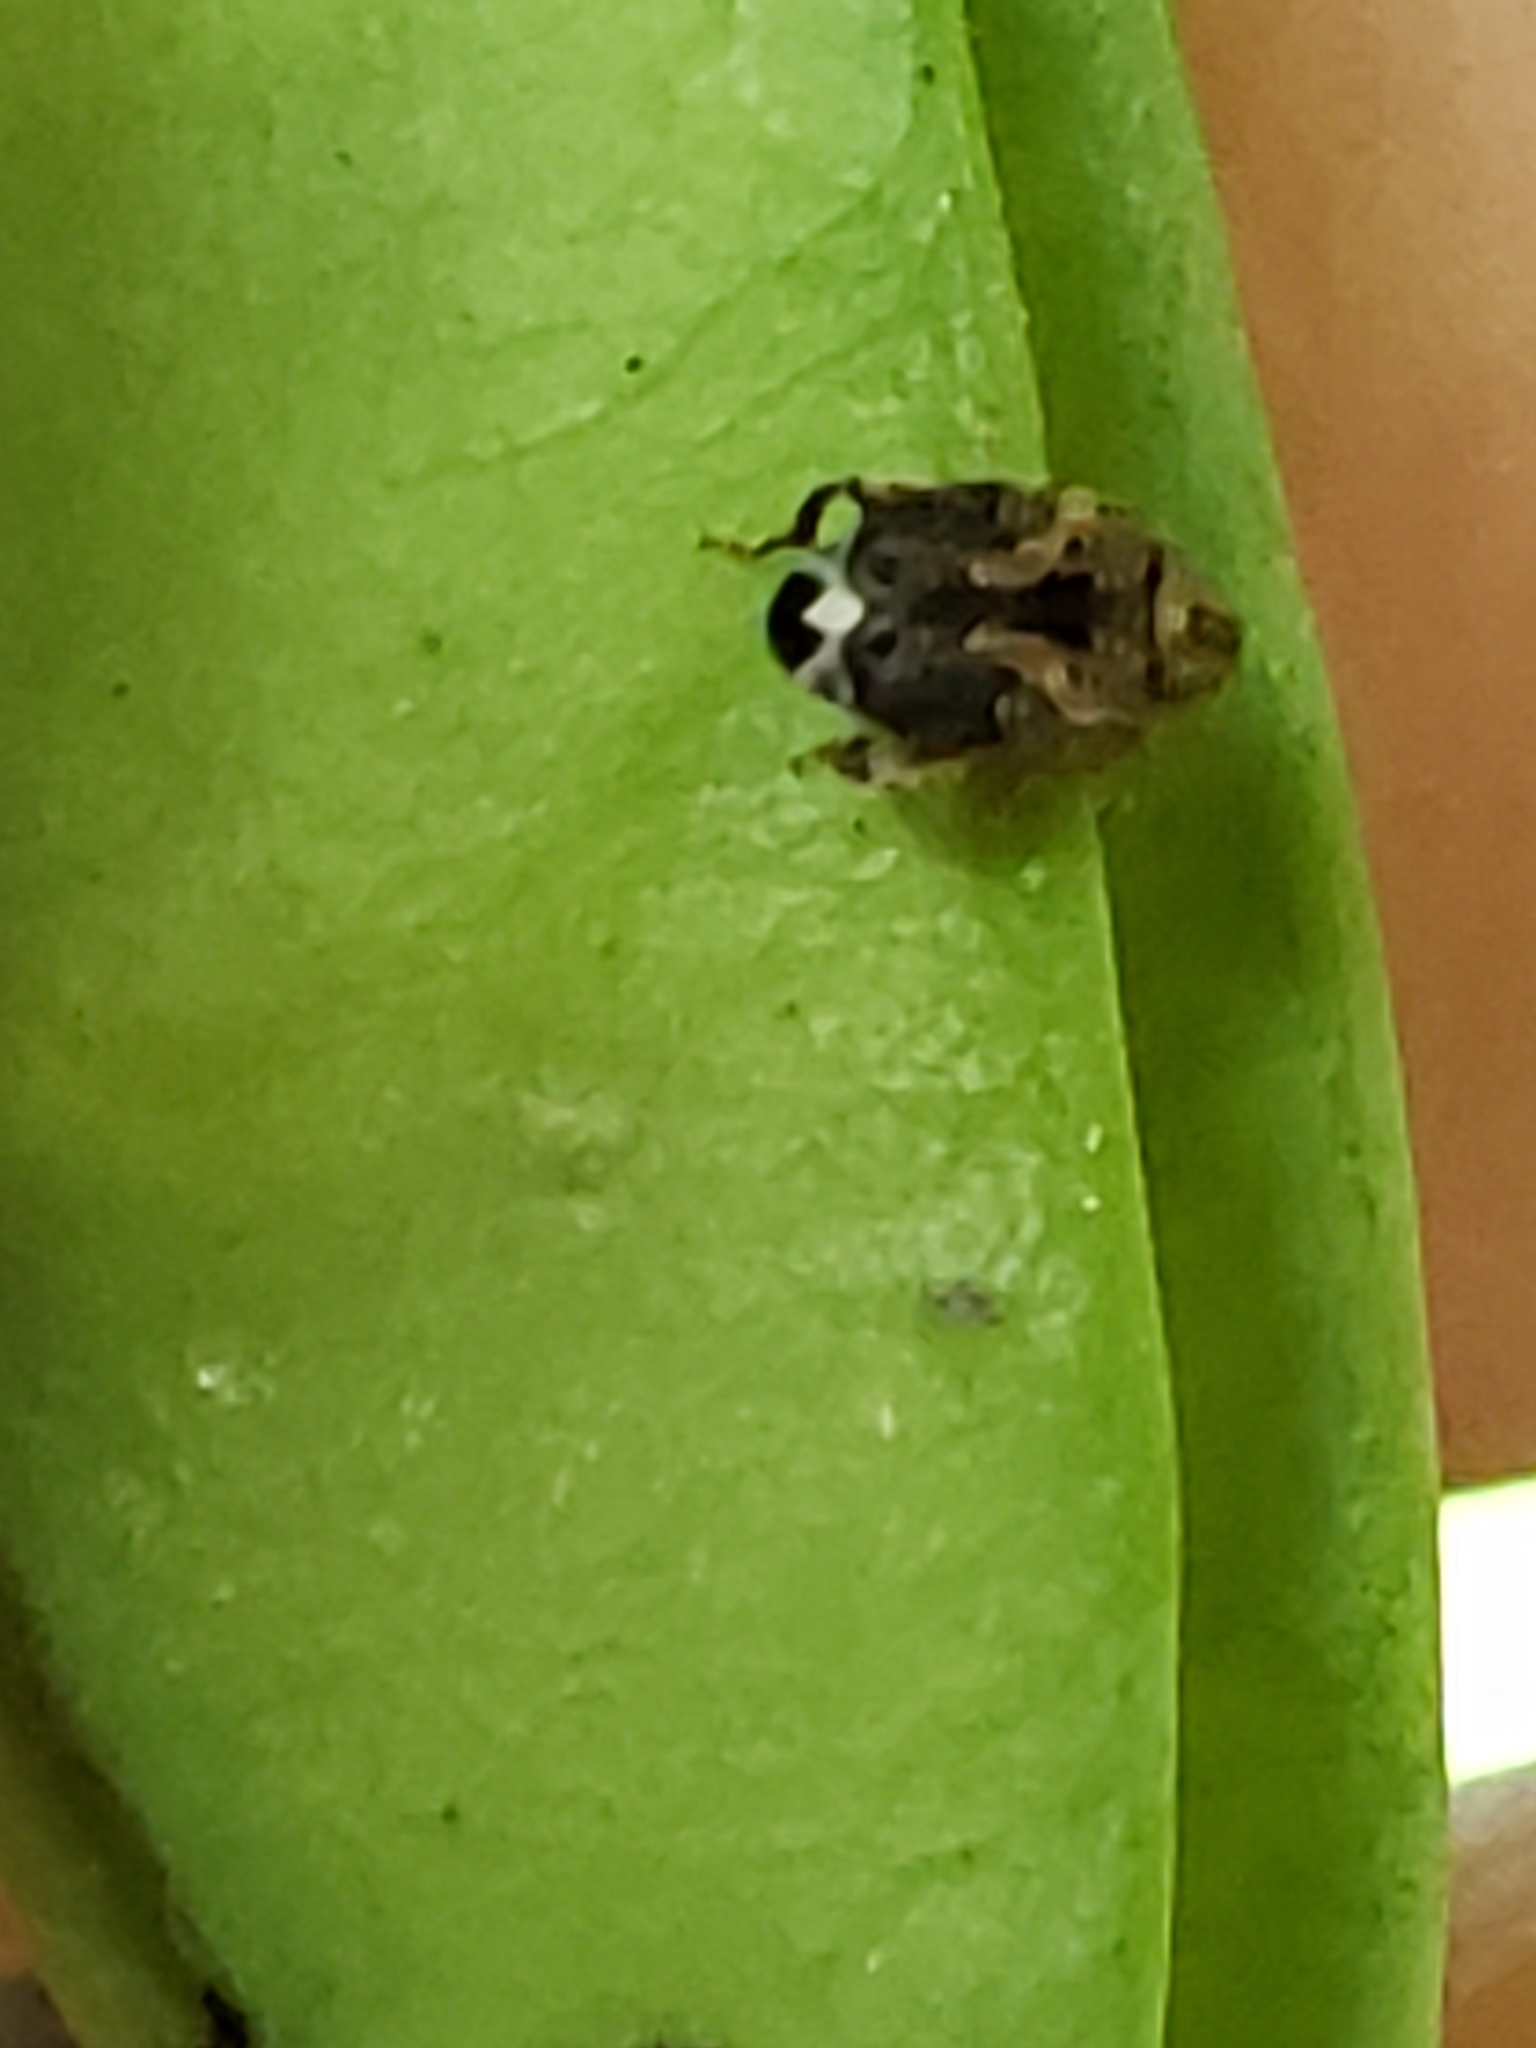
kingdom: Animalia
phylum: Arthropoda
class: Insecta
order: Coleoptera
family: Chrysomelidae
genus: Gibbobruchus
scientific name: Gibbobruchus mimus
